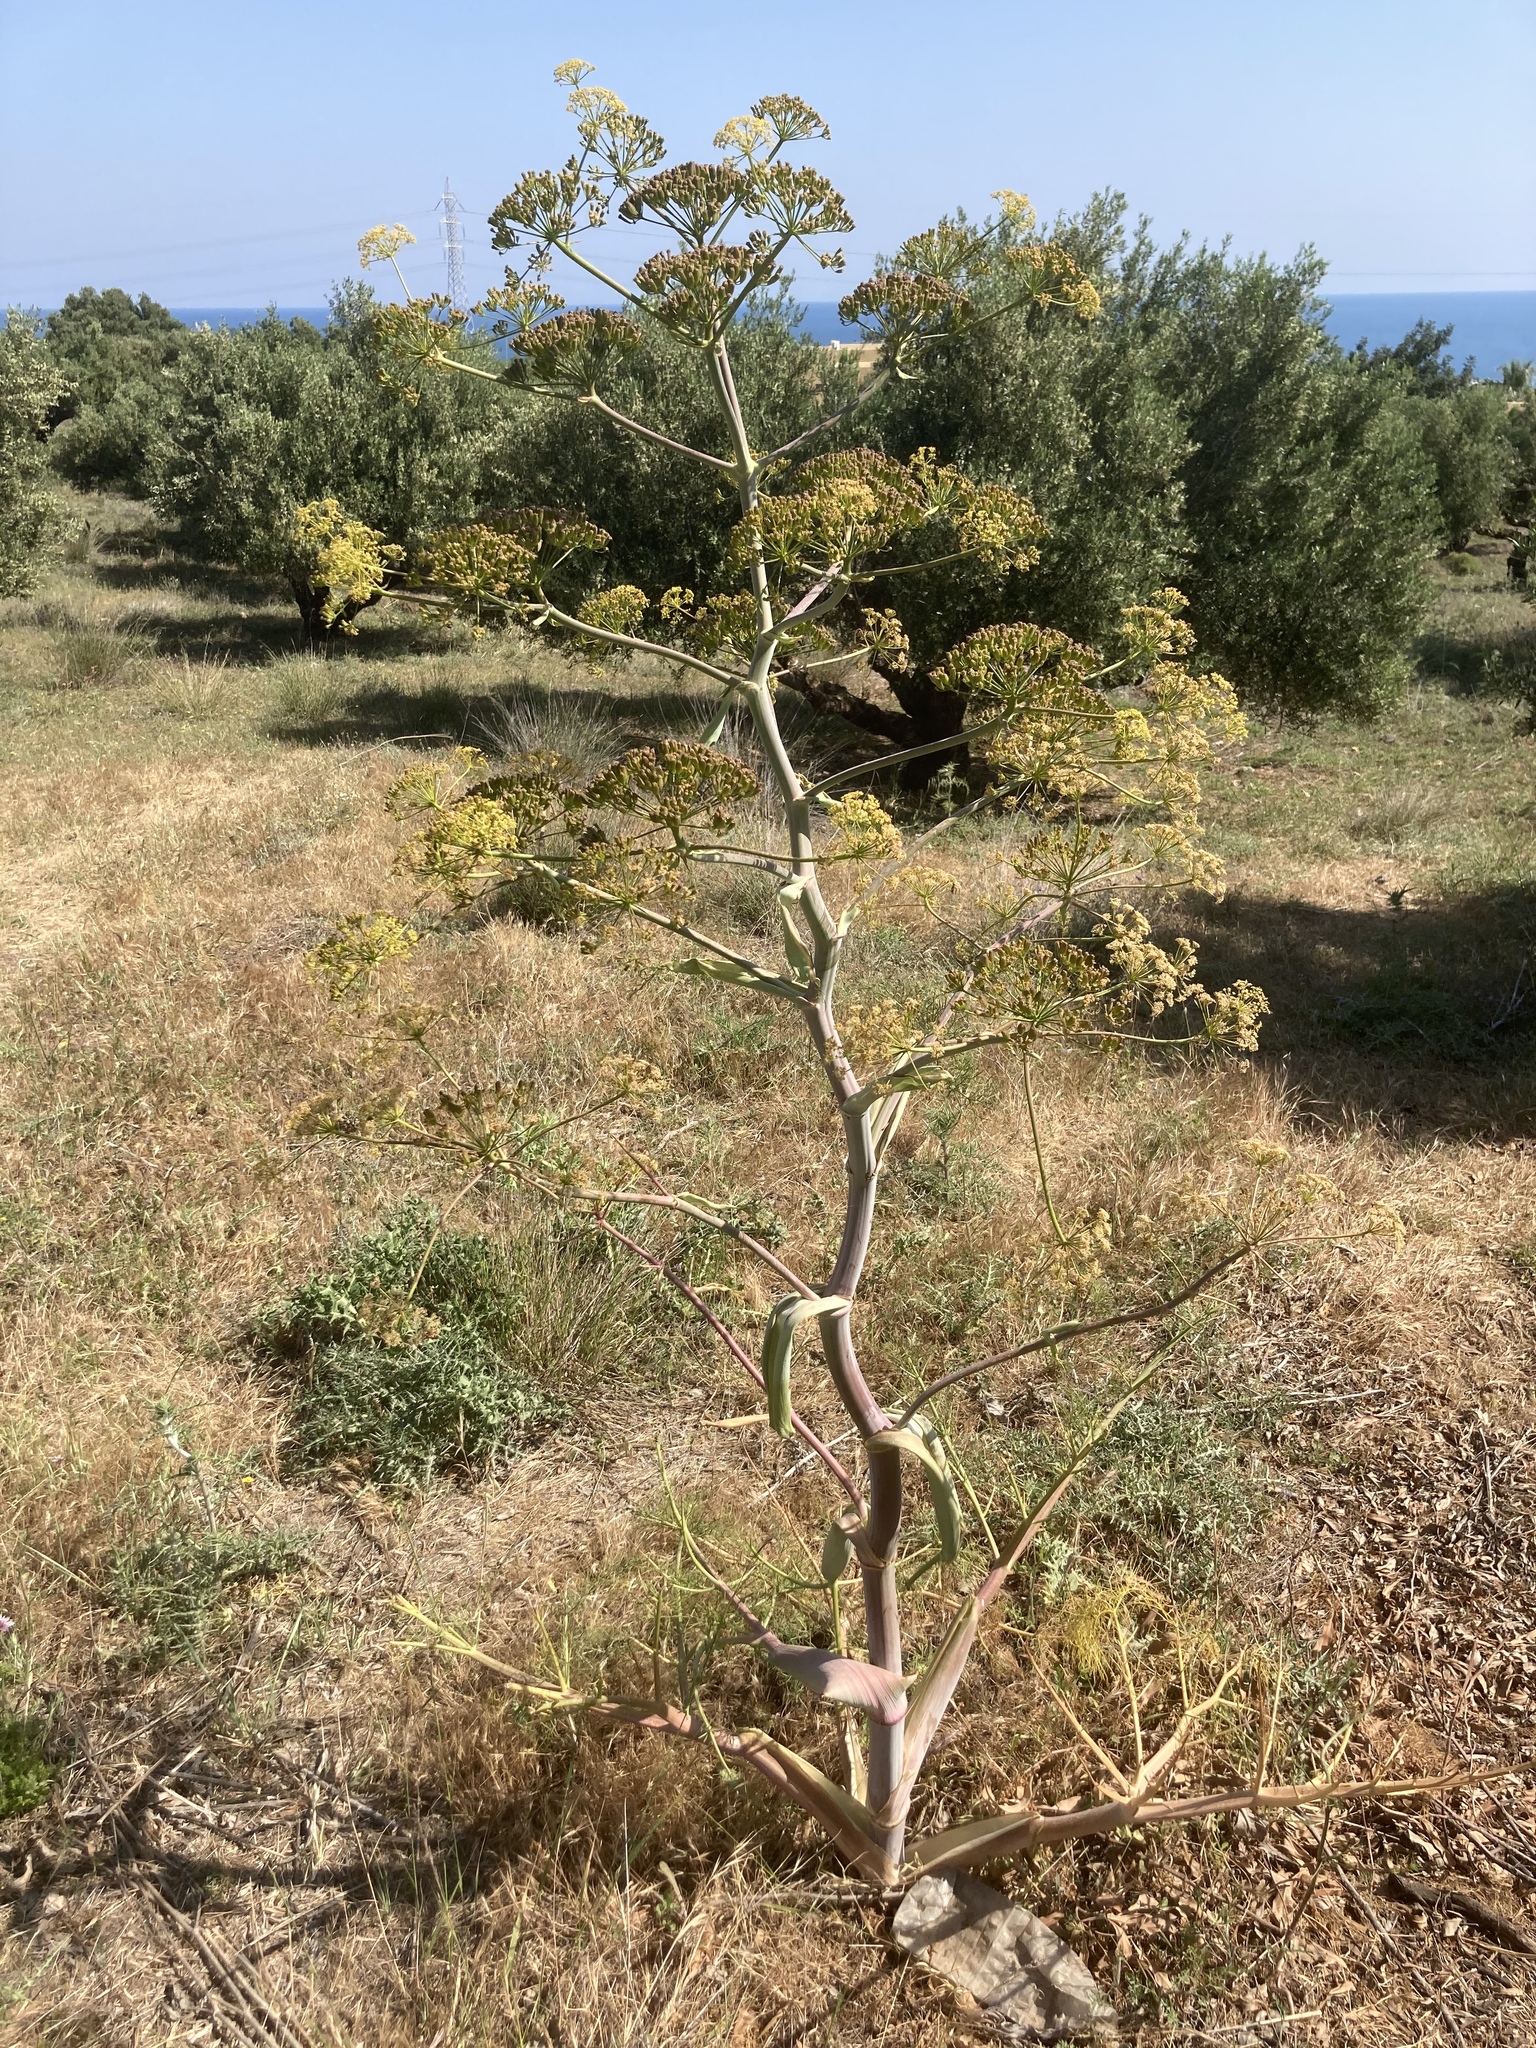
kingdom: Plantae
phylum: Tracheophyta
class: Magnoliopsida
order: Apiales
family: Apiaceae
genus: Ferula
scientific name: Ferula communis
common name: Giant fennel
